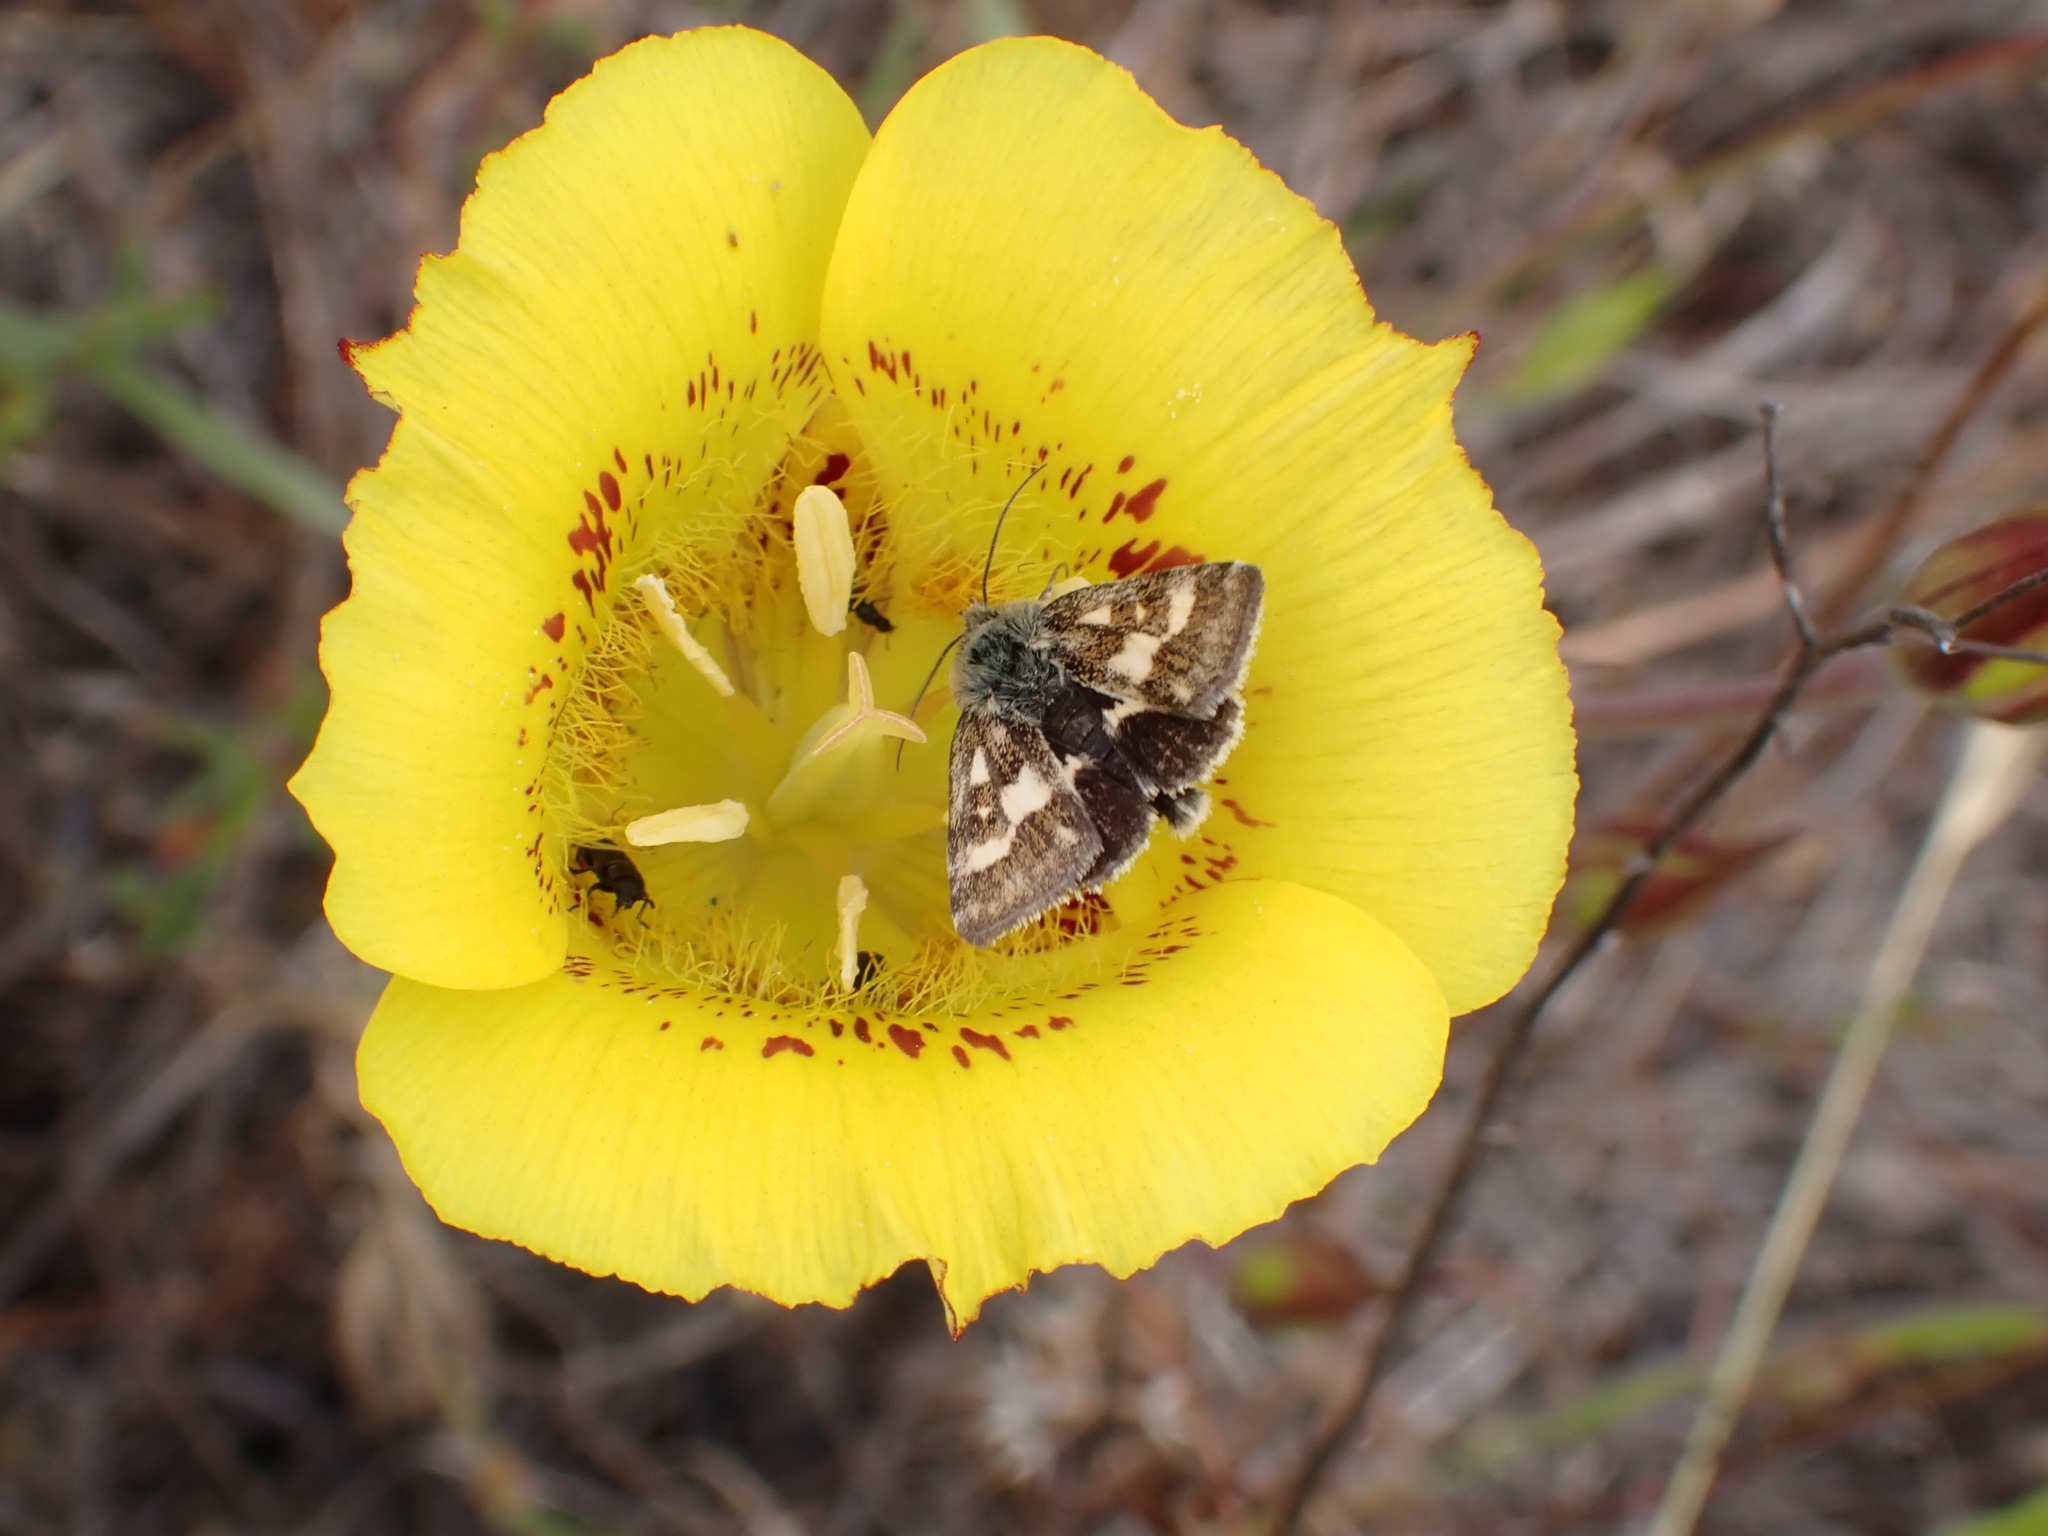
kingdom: Plantae
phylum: Tracheophyta
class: Liliopsida
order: Liliales
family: Liliaceae
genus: Calochortus
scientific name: Calochortus luteus
